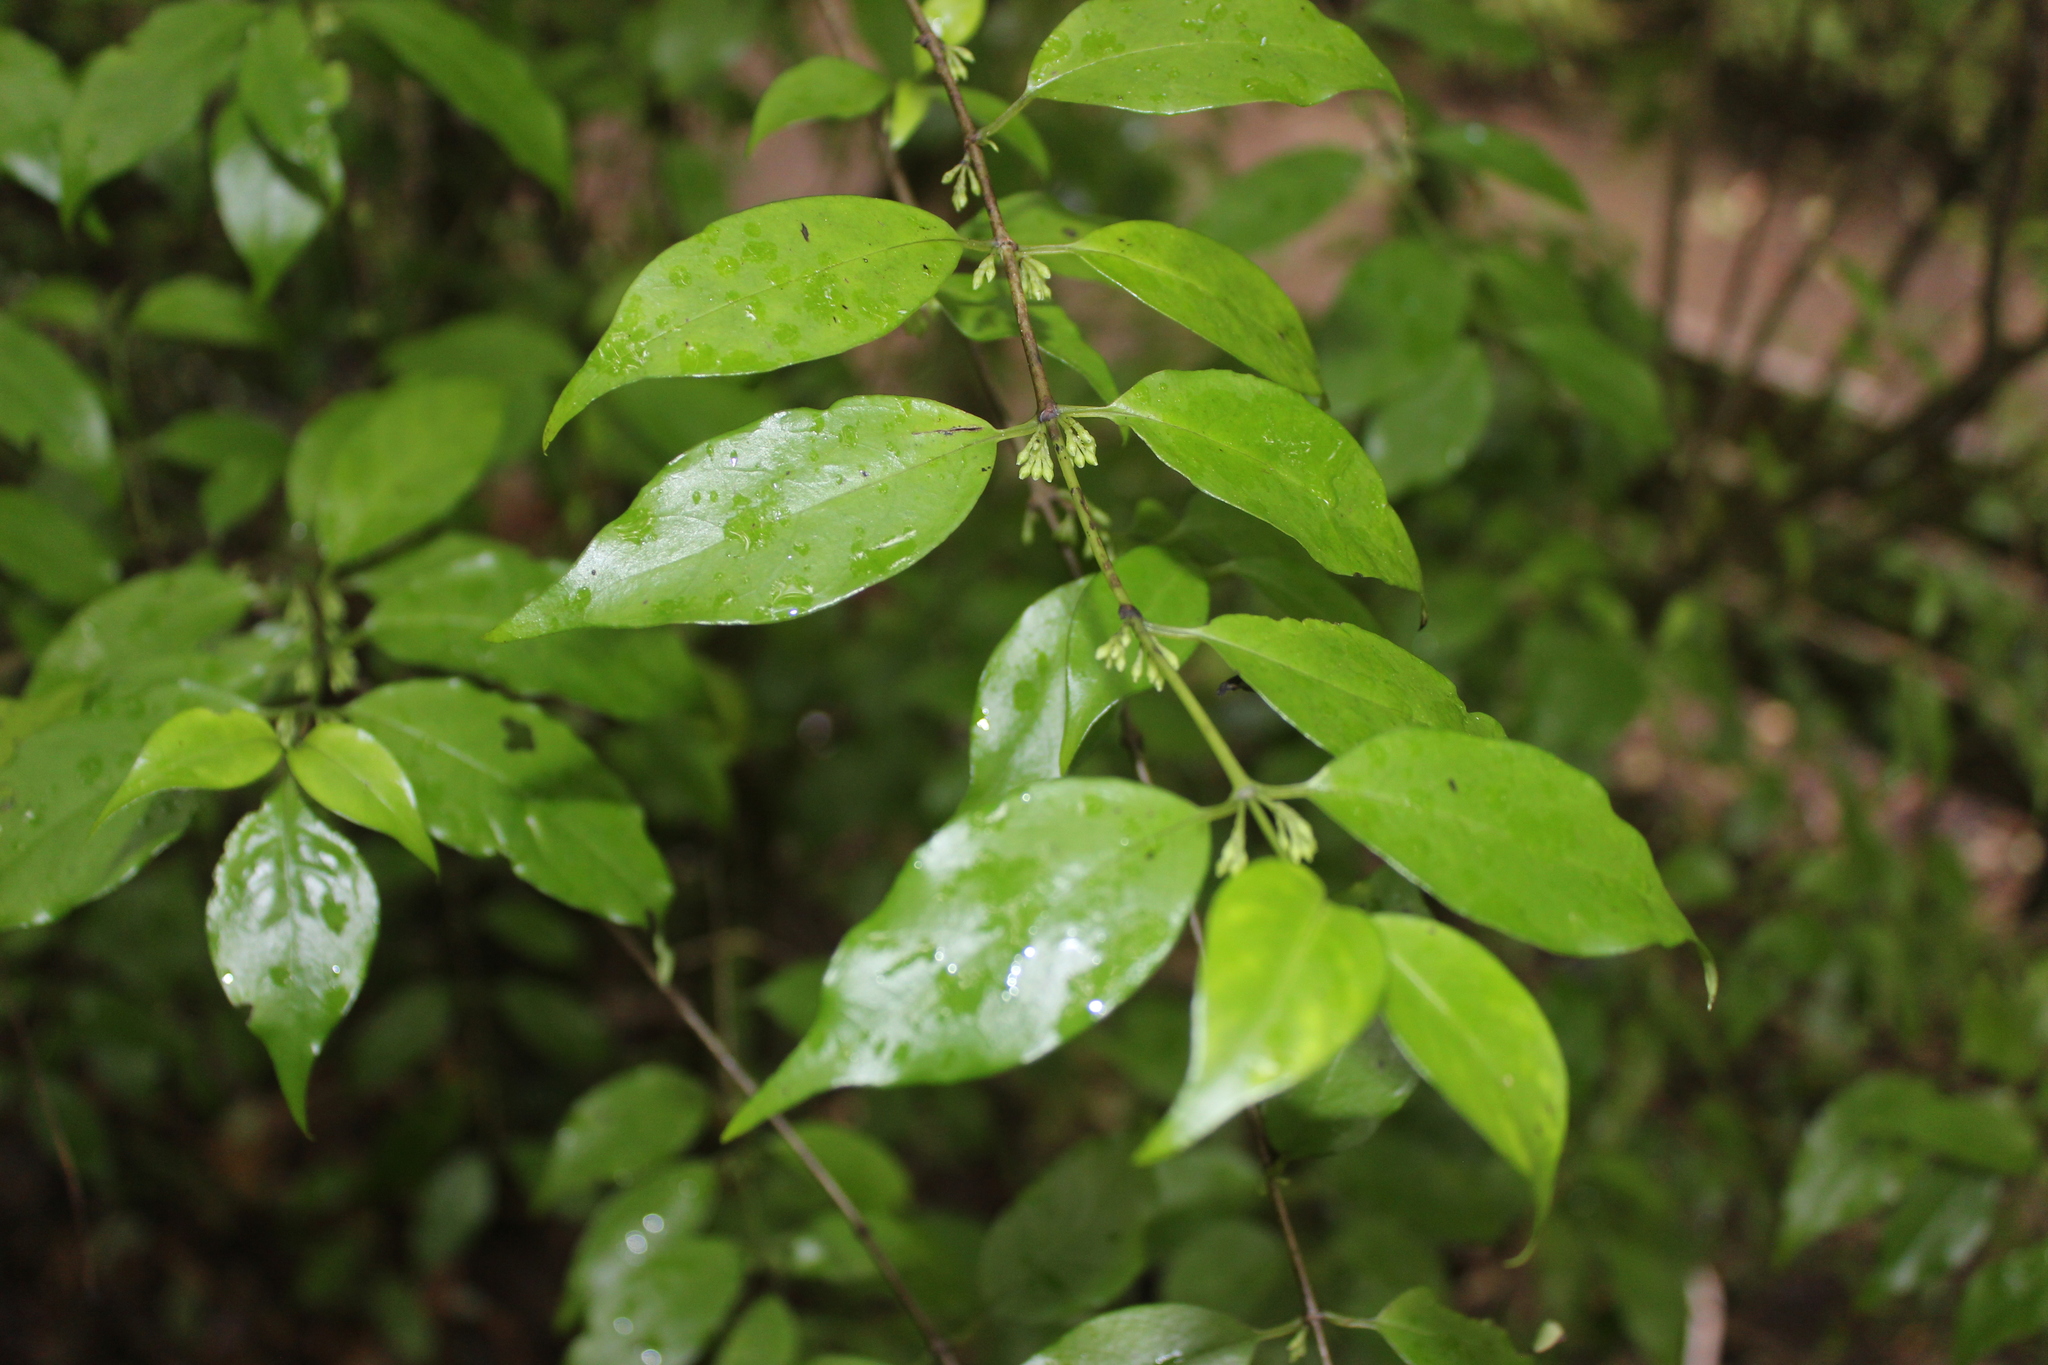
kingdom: Plantae
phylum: Tracheophyta
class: Magnoliopsida
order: Gentianales
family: Loganiaceae
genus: Geniostoma
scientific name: Geniostoma ligustrifolium
